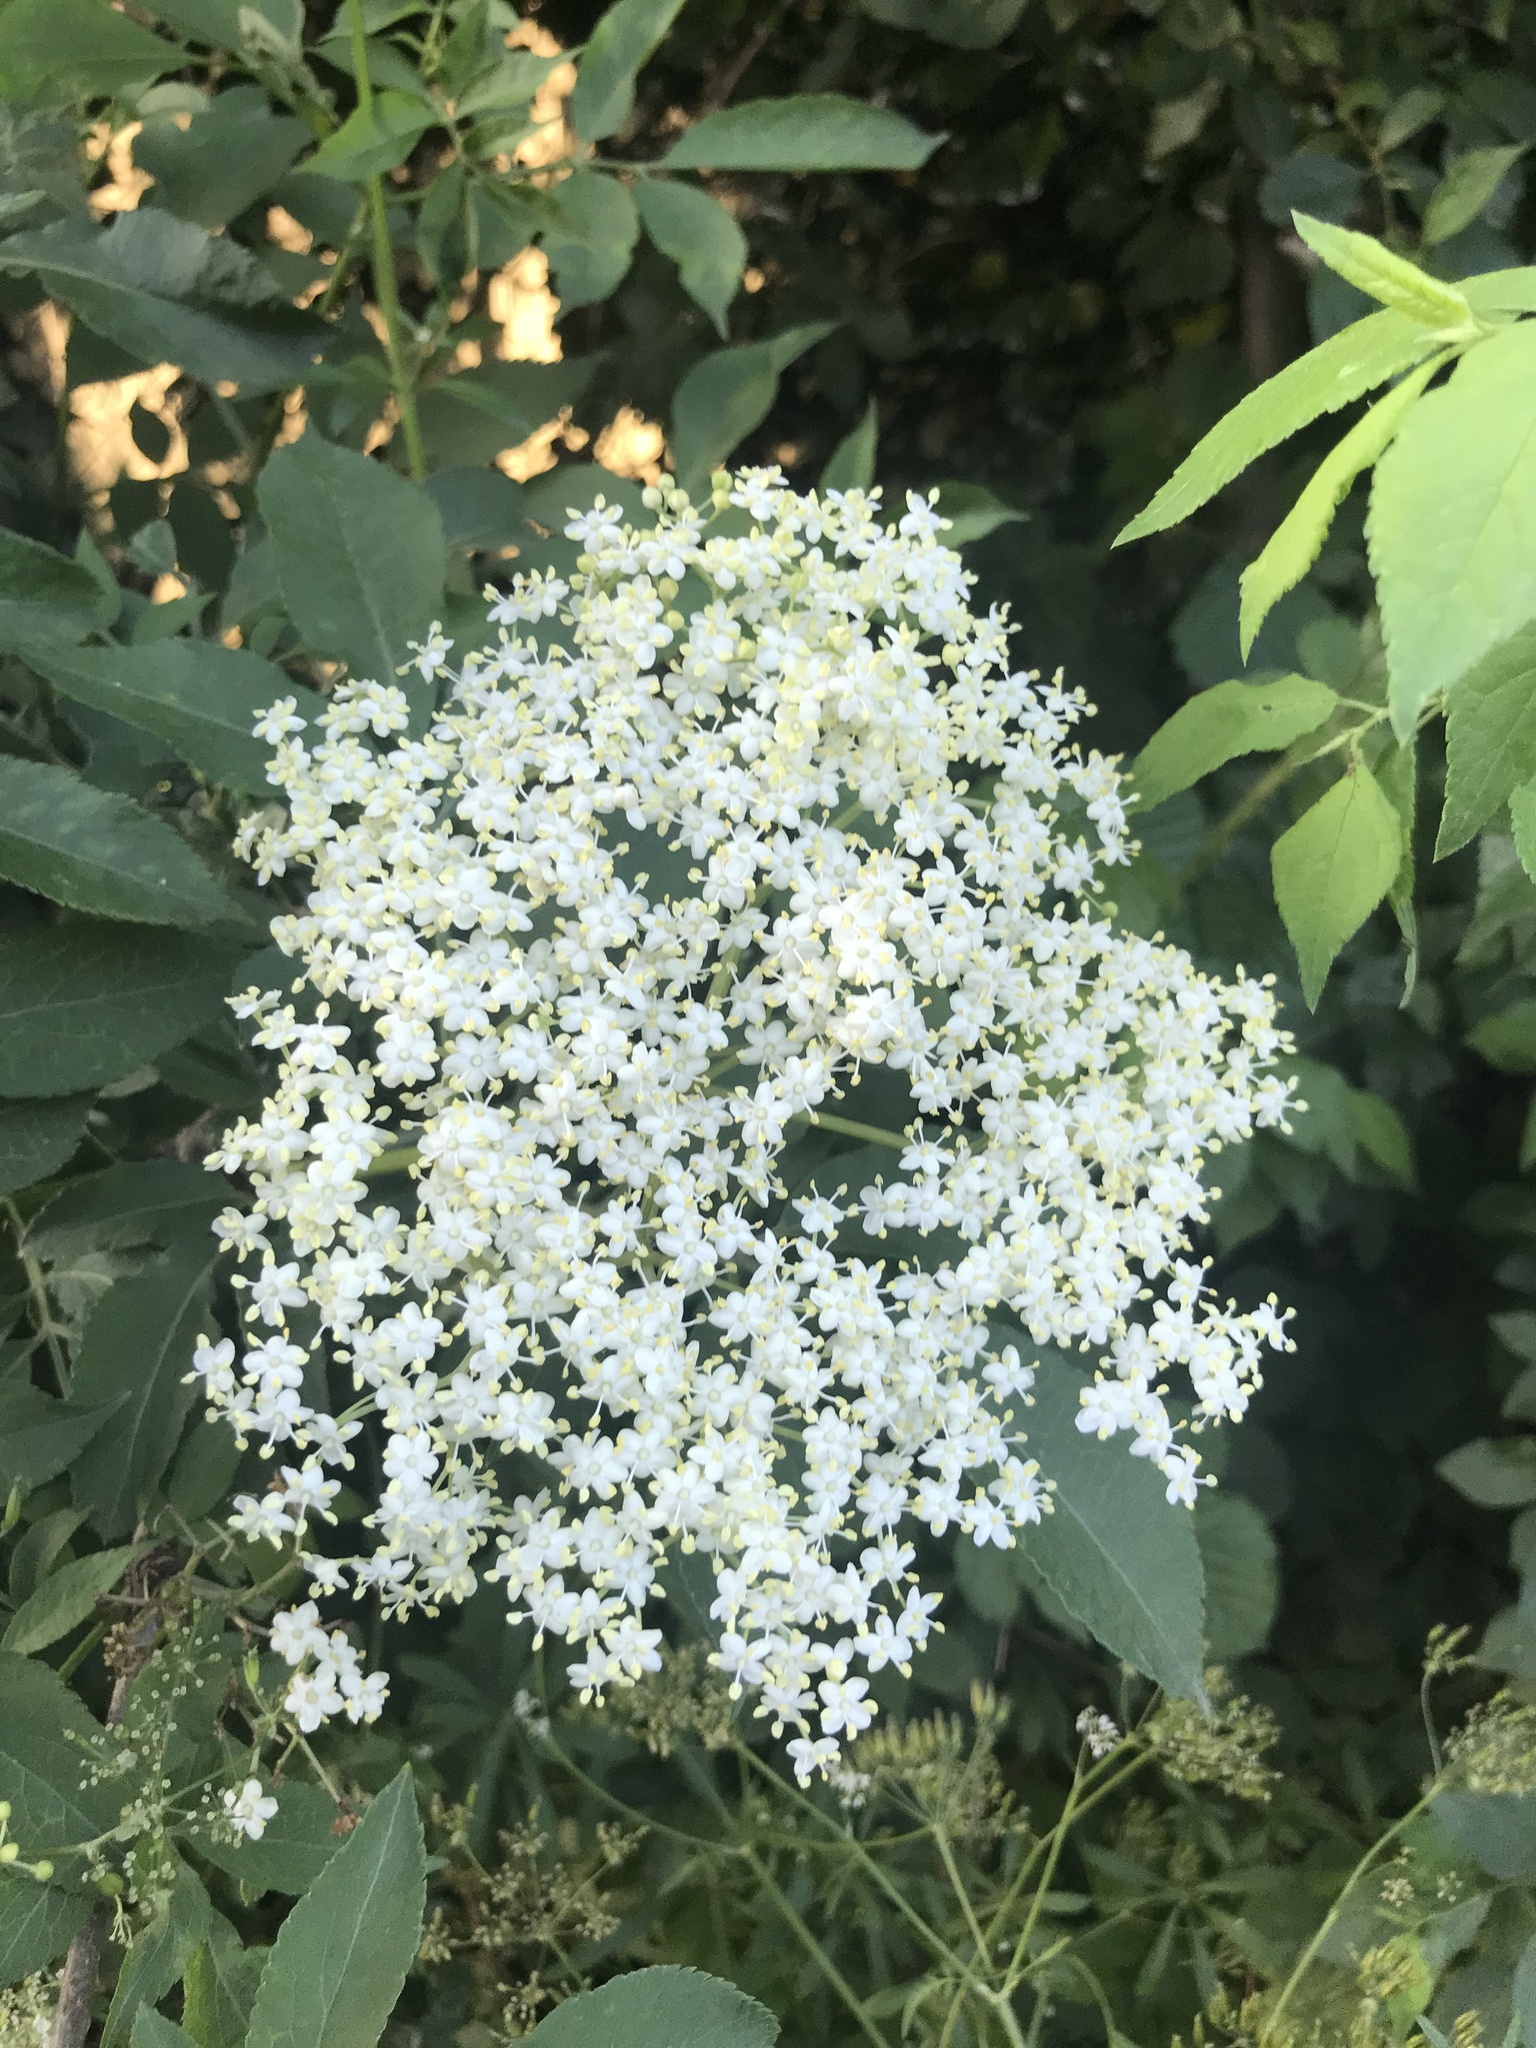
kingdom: Plantae
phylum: Tracheophyta
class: Magnoliopsida
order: Dipsacales
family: Viburnaceae
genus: Sambucus
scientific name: Sambucus nigra
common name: Elder
